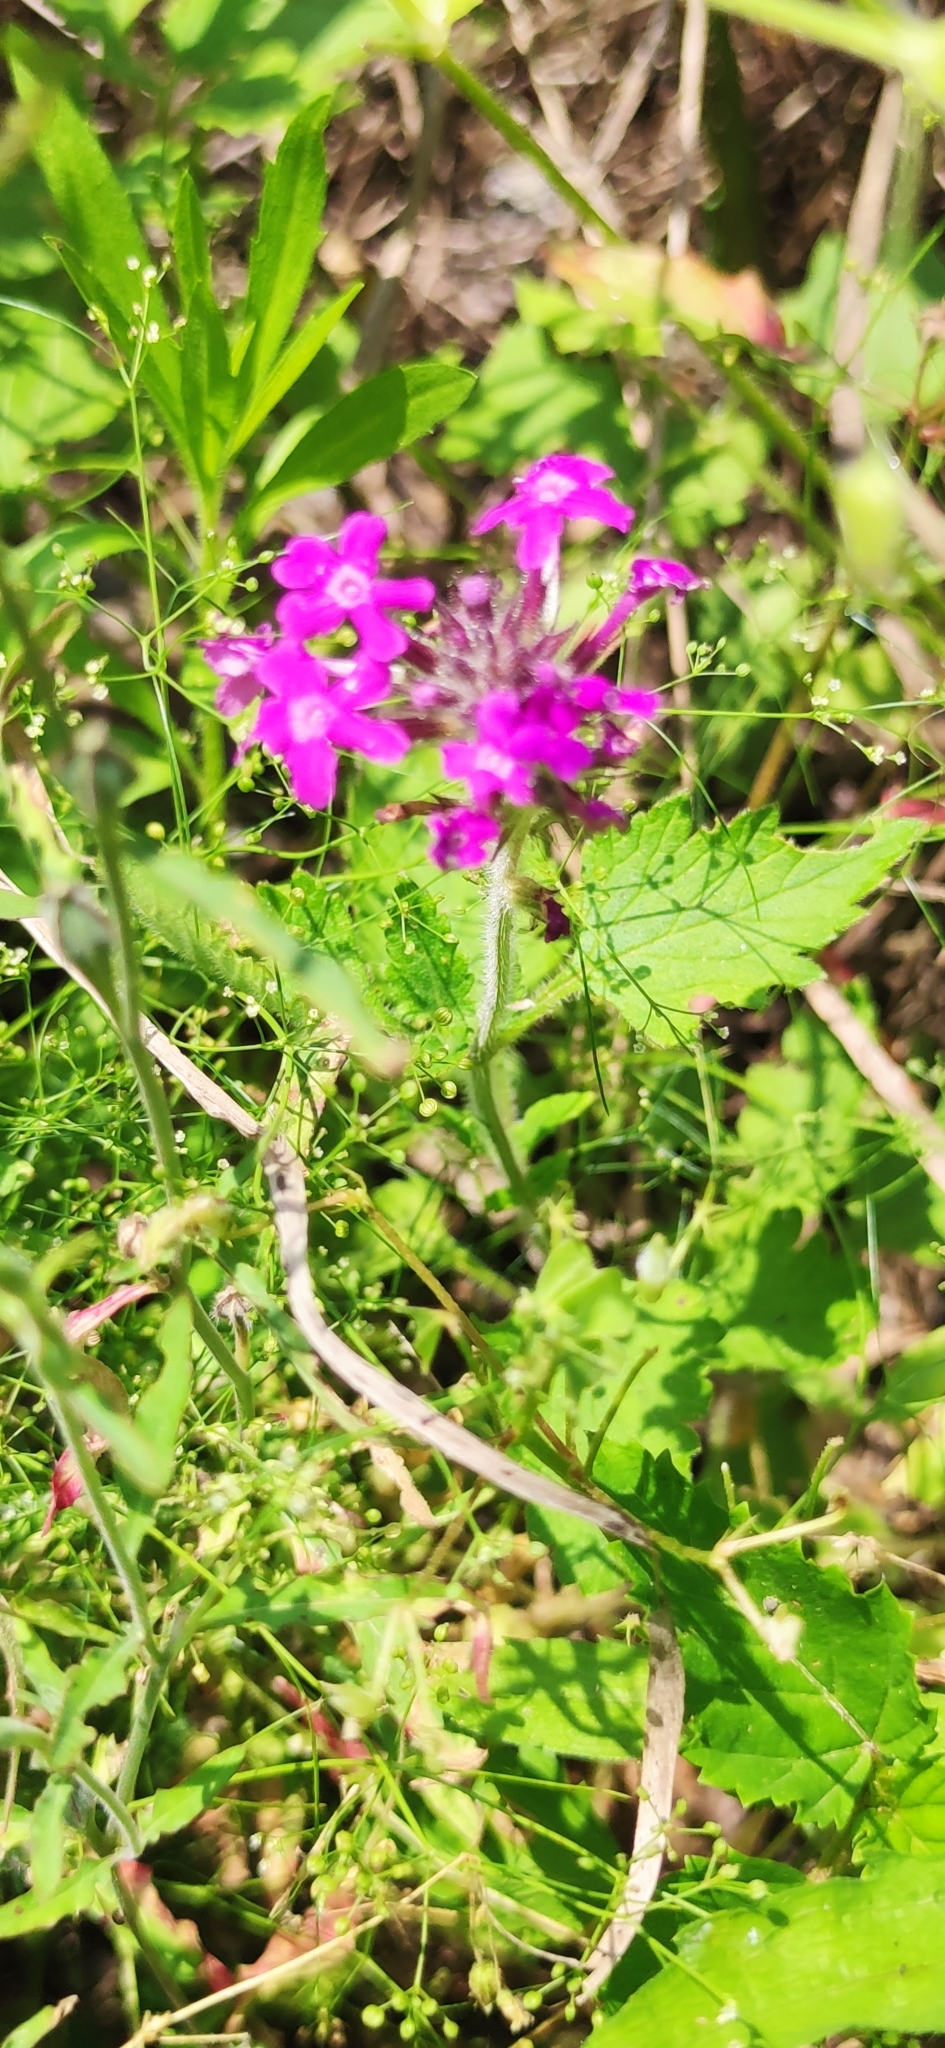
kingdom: Plantae
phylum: Tracheophyta
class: Magnoliopsida
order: Myrtales
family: Onagraceae
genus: Oenothera
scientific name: Oenothera rosea
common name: Rosy evening-primrose
